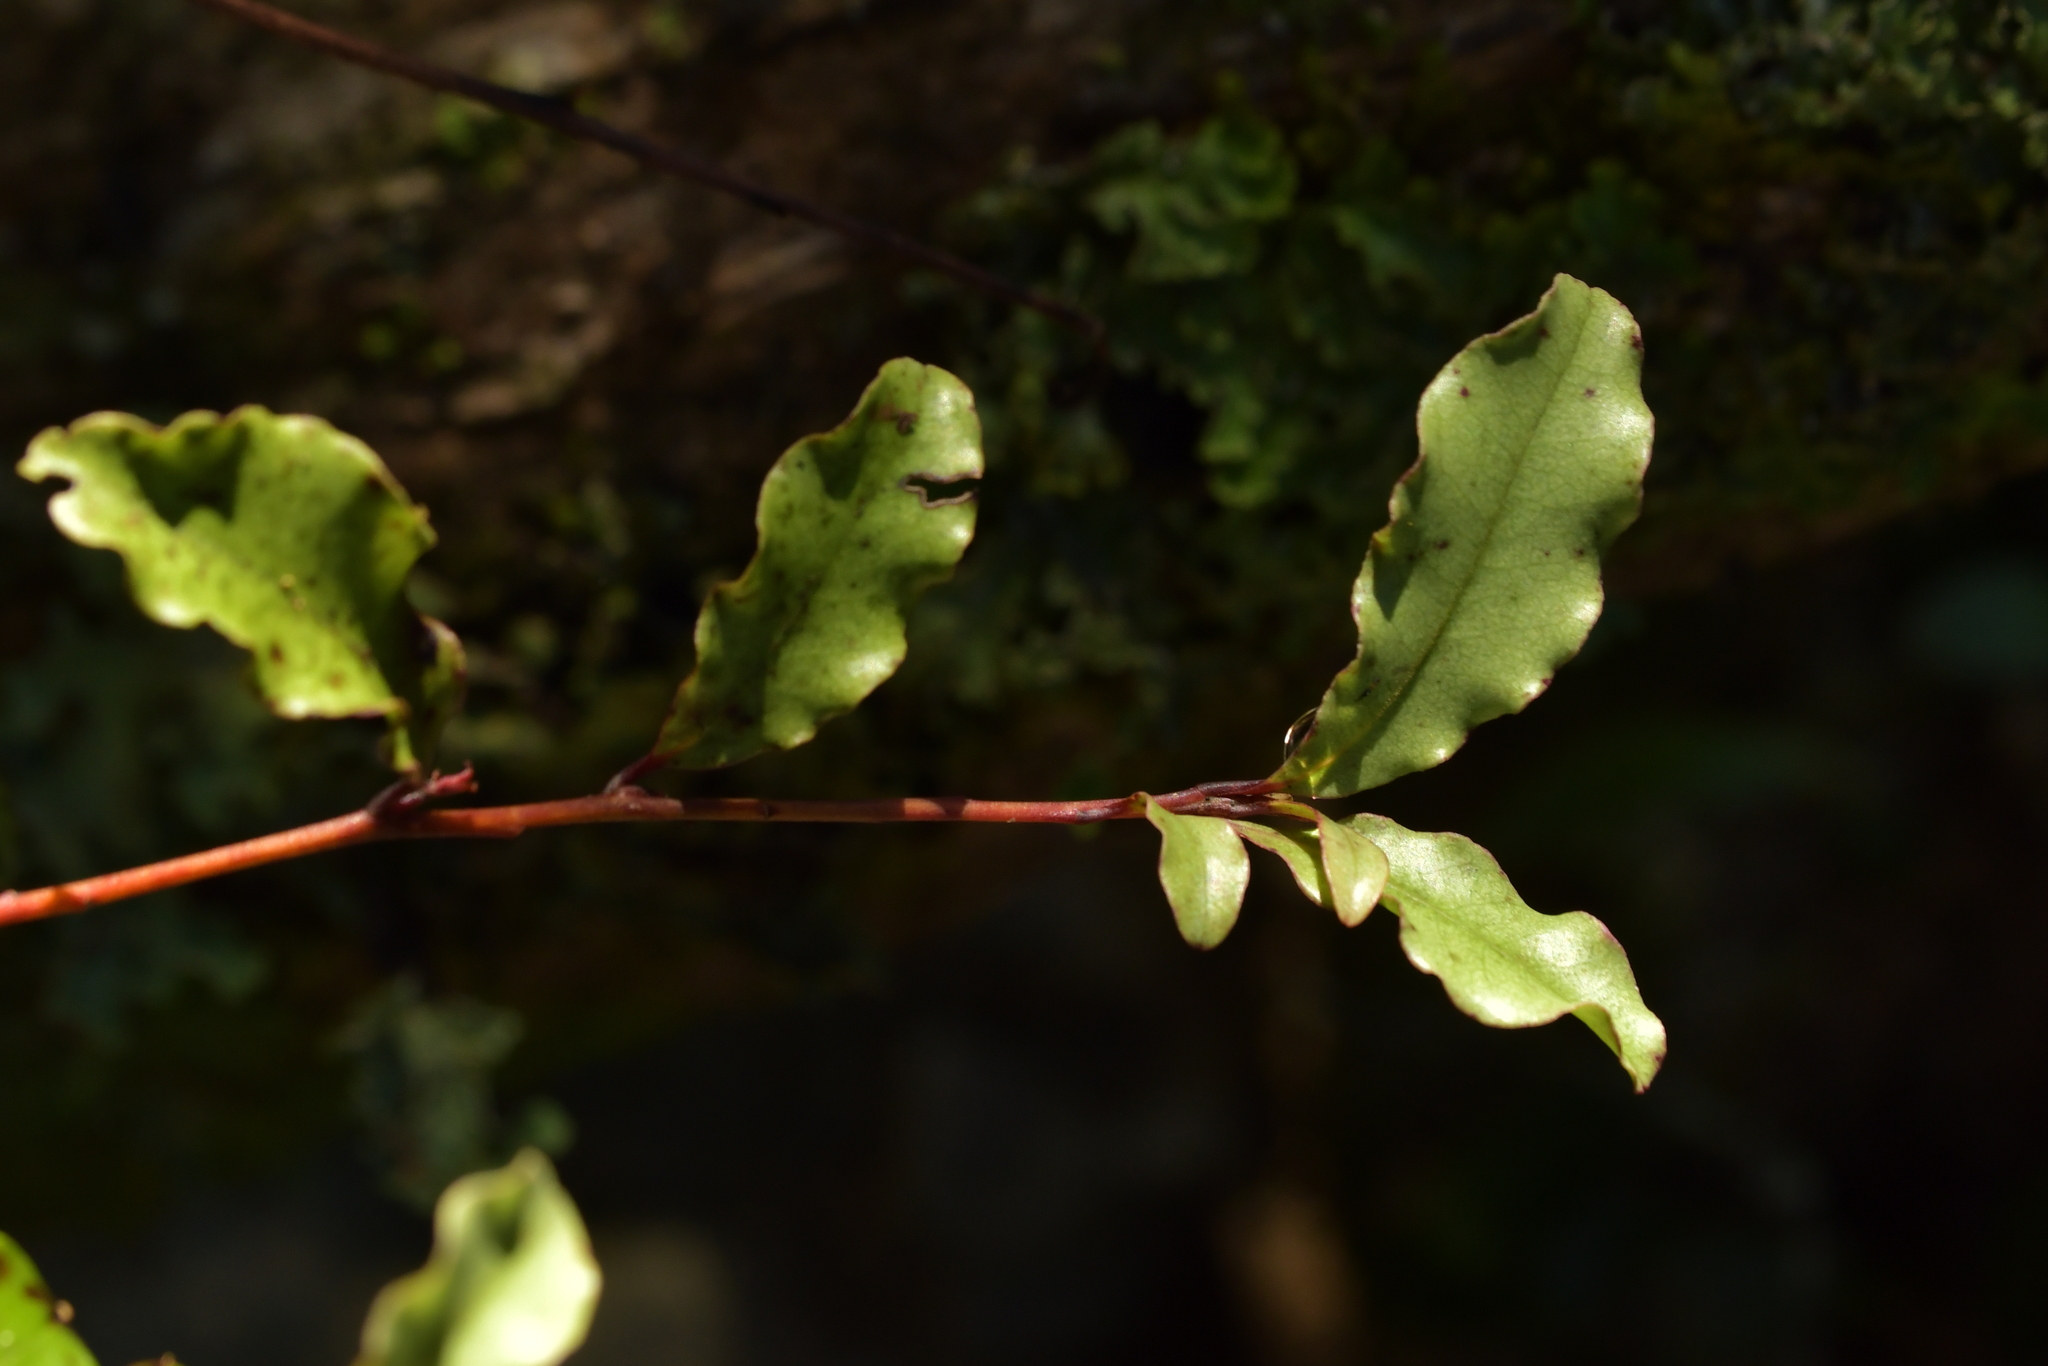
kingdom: Plantae
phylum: Tracheophyta
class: Magnoliopsida
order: Ericales
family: Primulaceae
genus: Myrsine
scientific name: Myrsine australis
